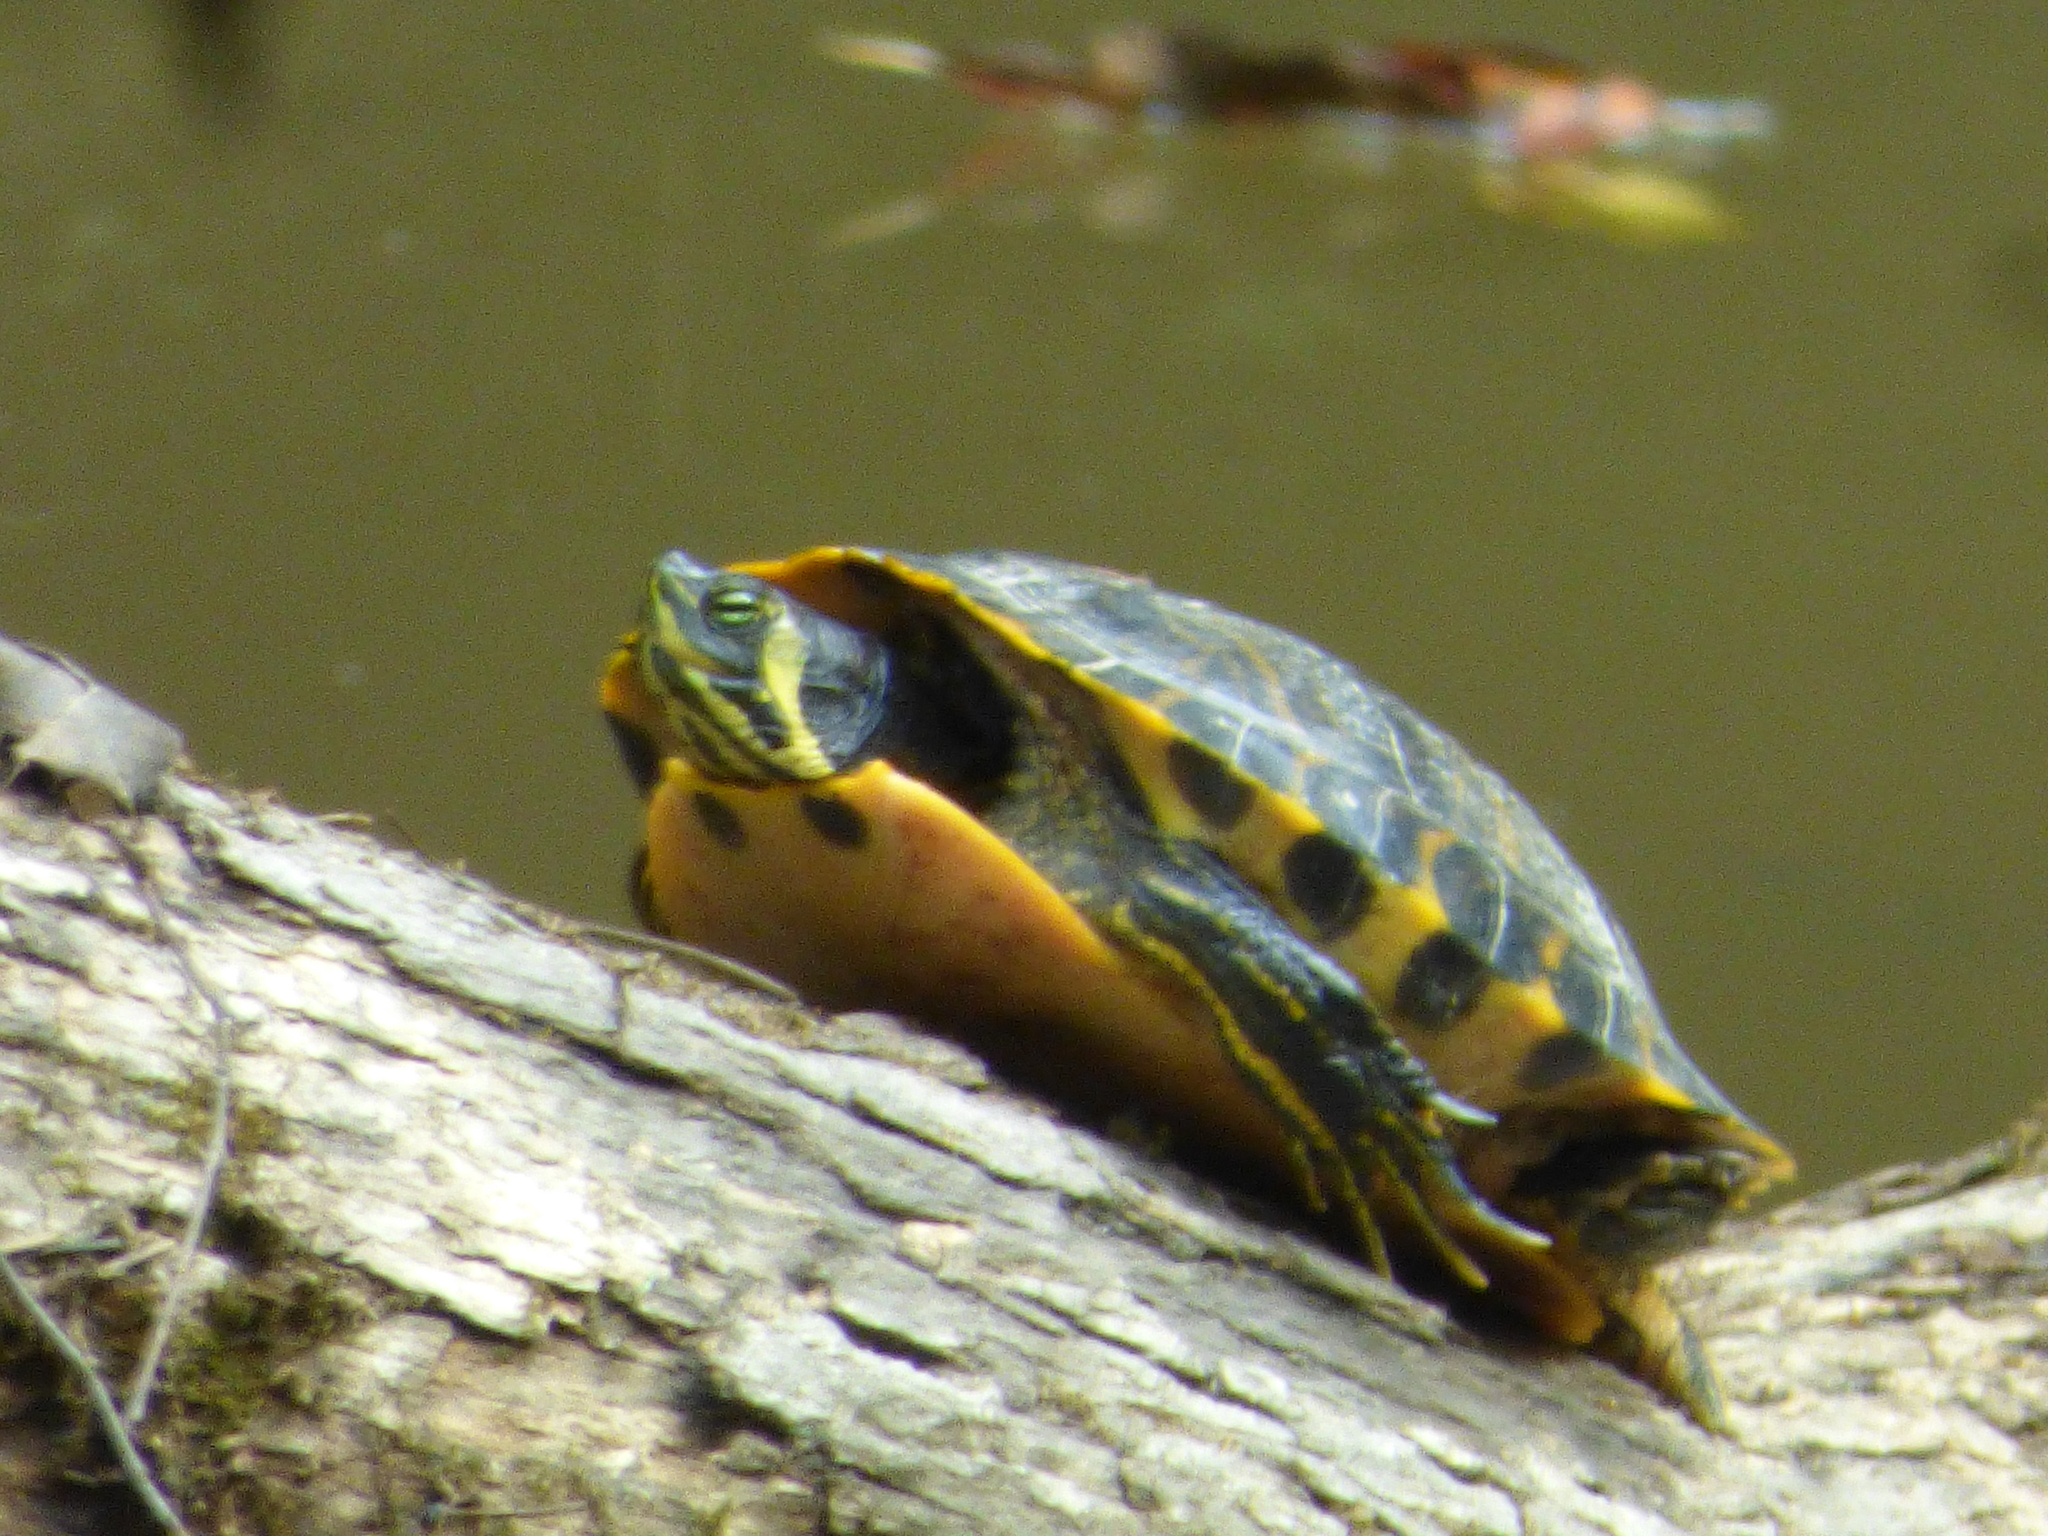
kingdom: Animalia
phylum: Chordata
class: Testudines
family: Emydidae
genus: Trachemys
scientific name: Trachemys scripta
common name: Slider
